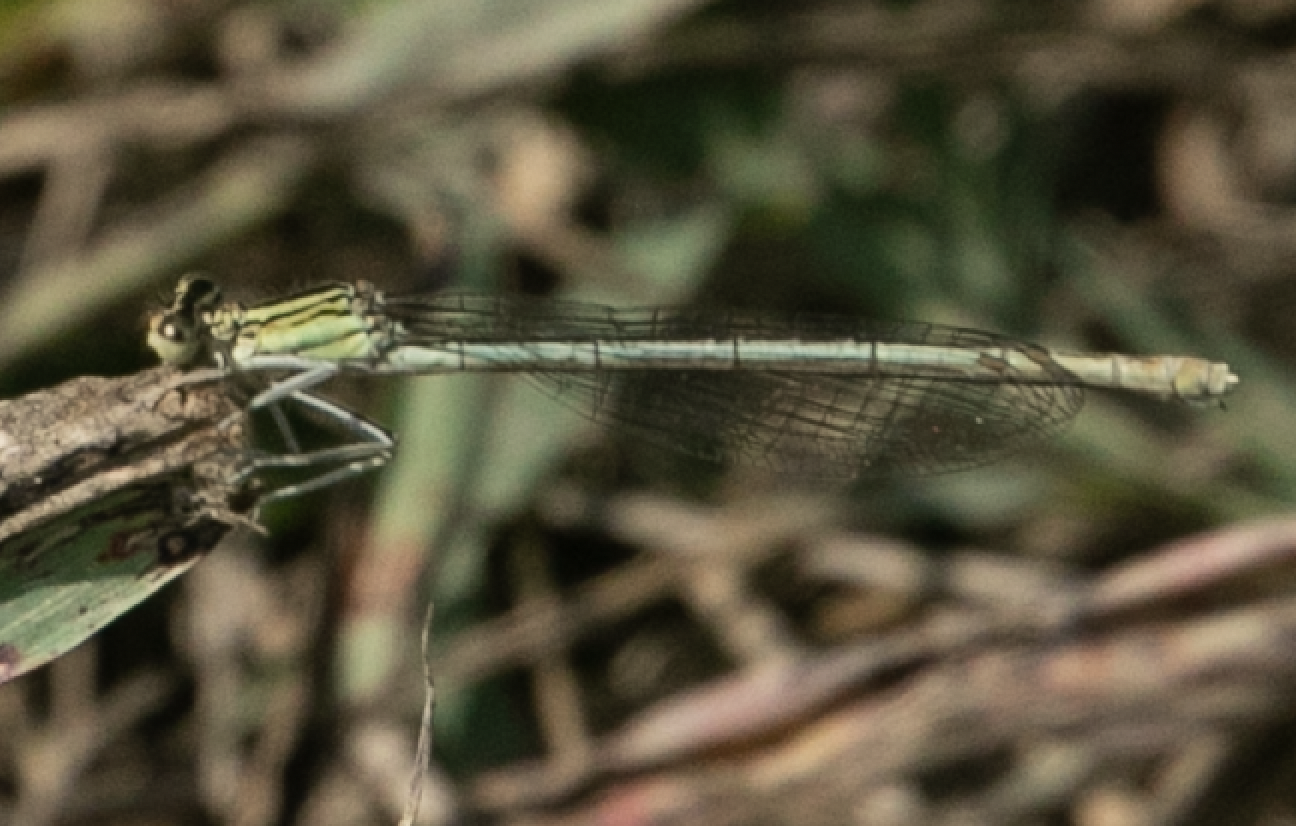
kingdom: Animalia
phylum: Arthropoda
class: Insecta
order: Odonata
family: Platycnemididae
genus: Platycnemis
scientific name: Platycnemis pennipes
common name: White-legged damselfly
